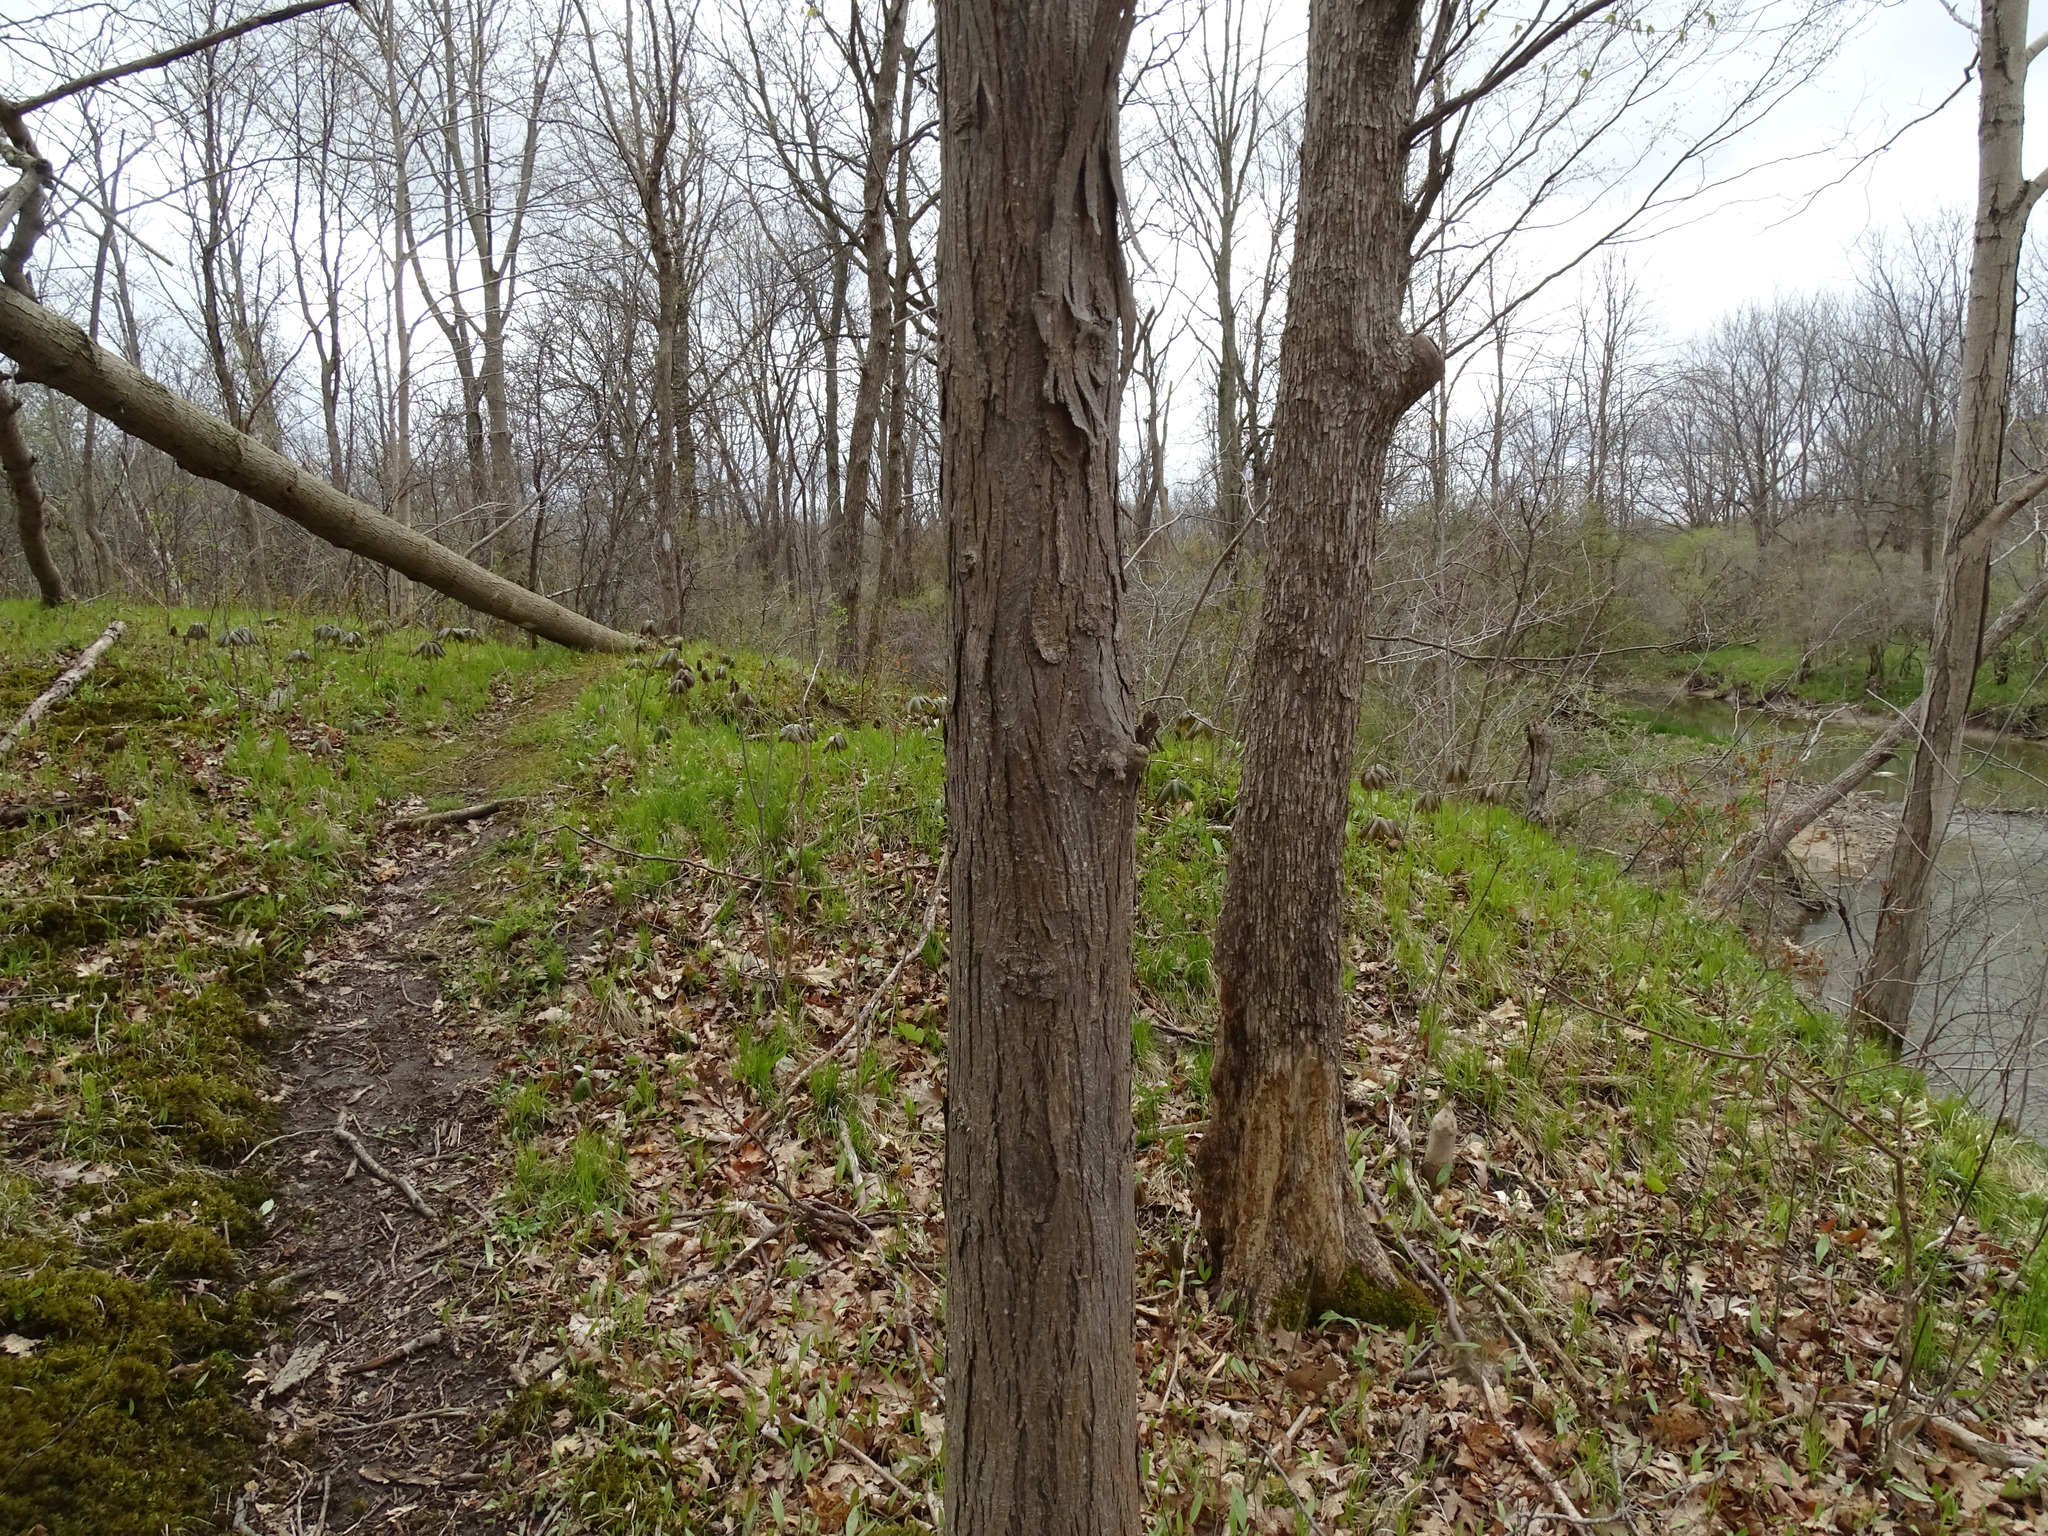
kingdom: Plantae
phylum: Tracheophyta
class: Magnoliopsida
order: Fagales
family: Juglandaceae
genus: Carya
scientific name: Carya ovata
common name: Shagbark hickory
